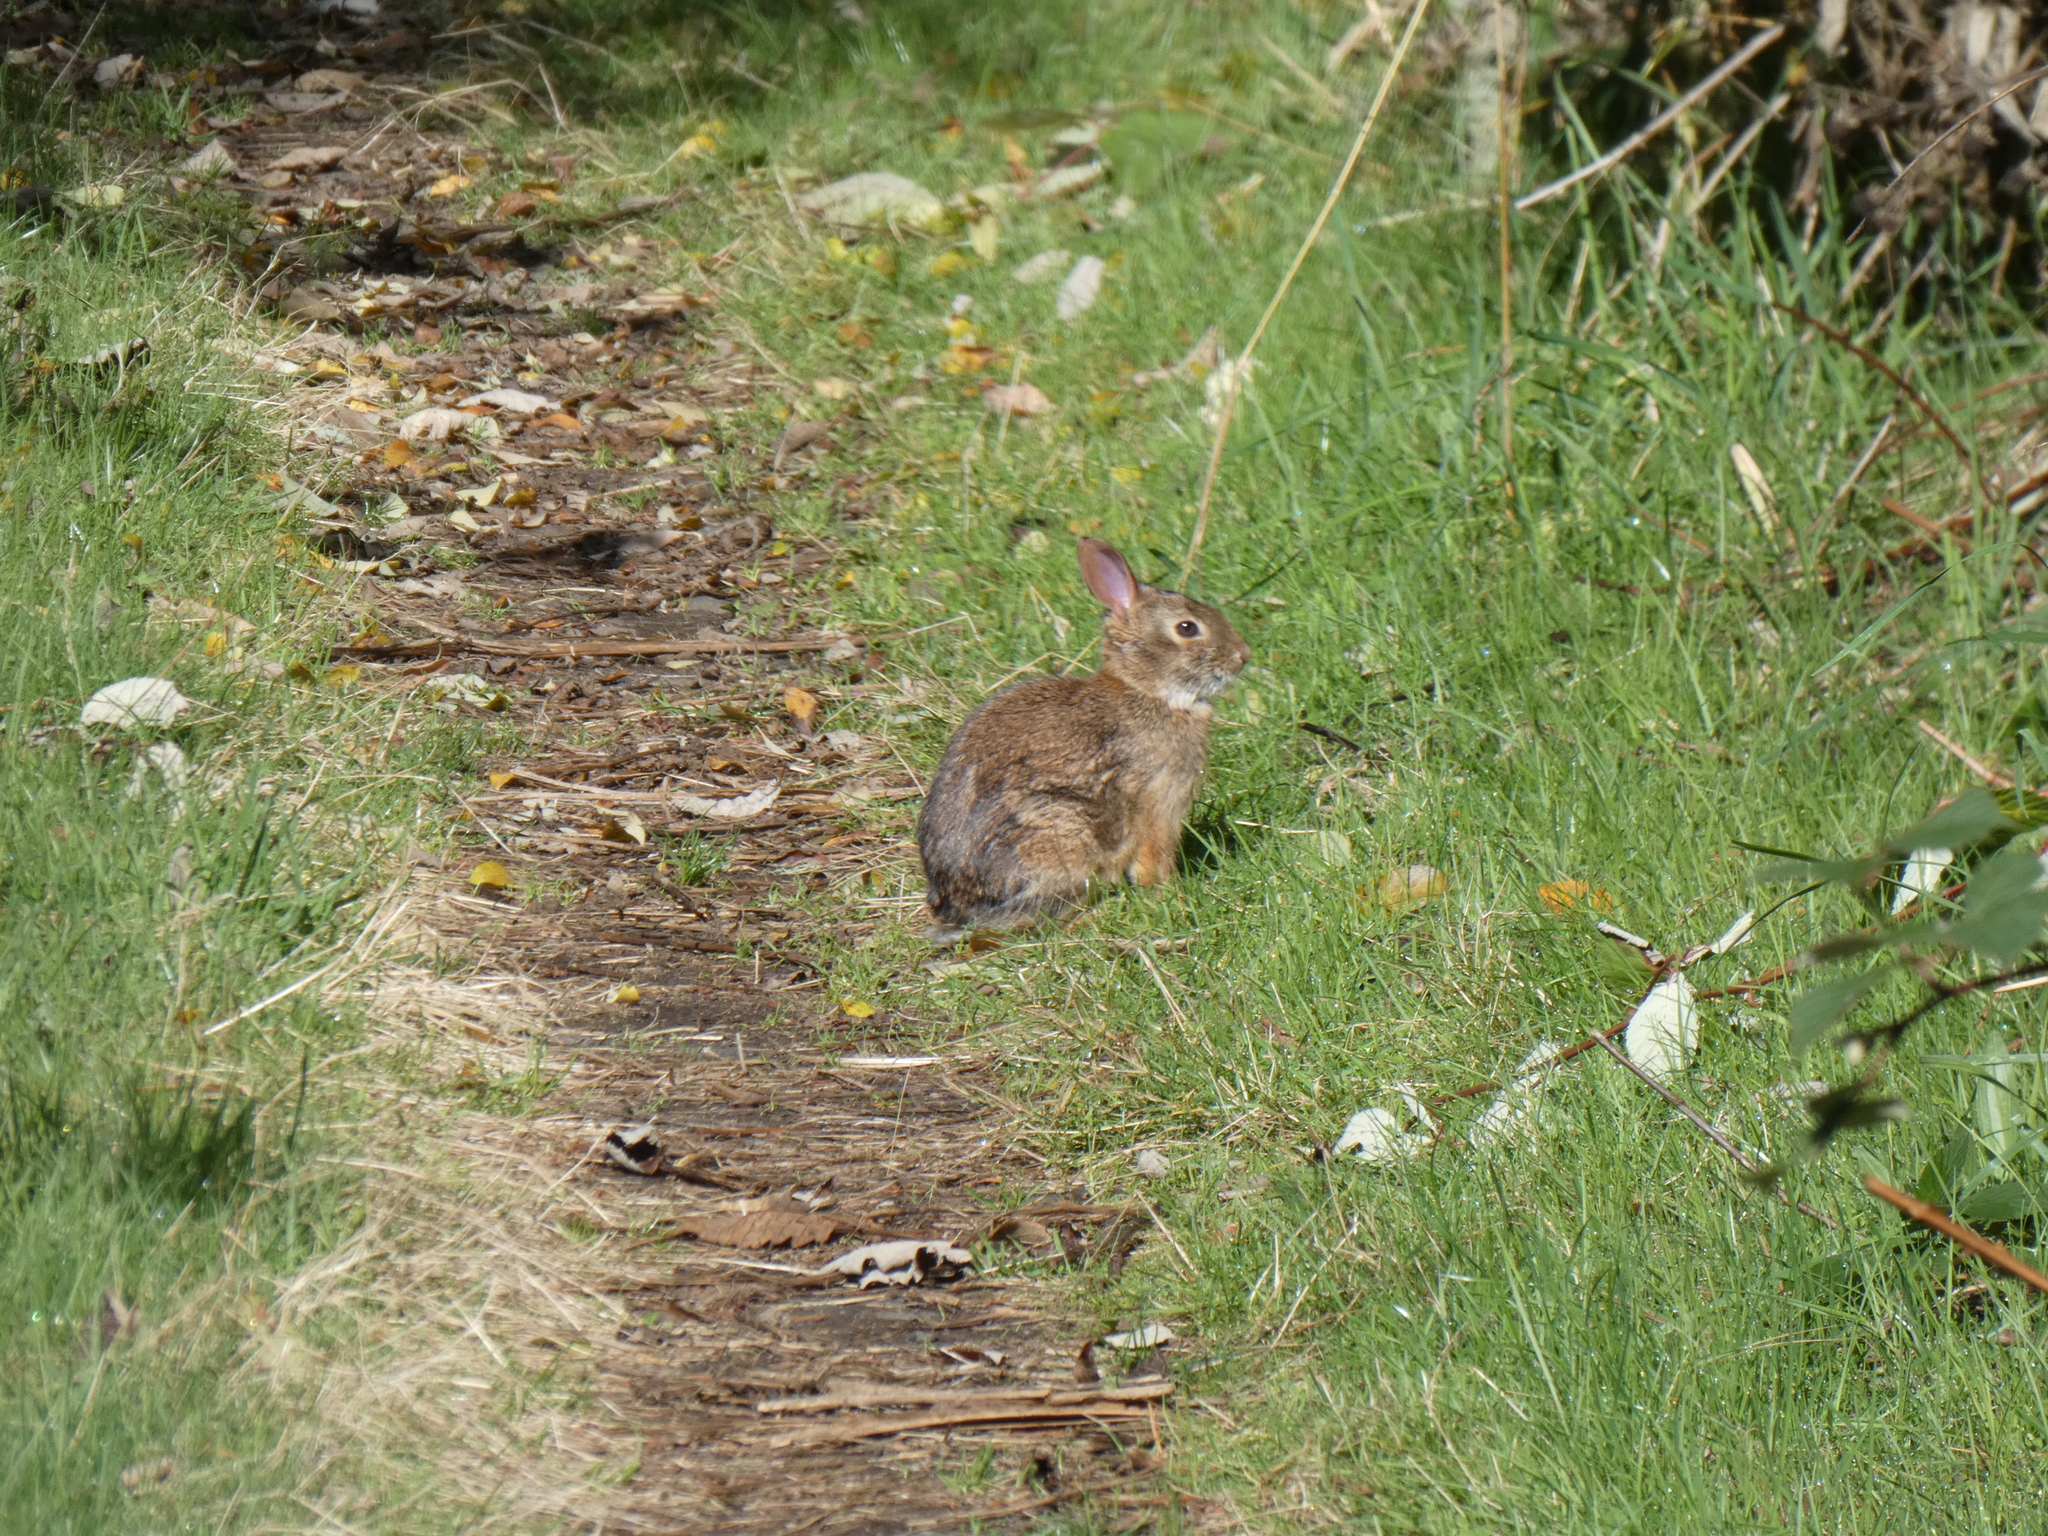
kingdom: Animalia
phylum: Chordata
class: Mammalia
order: Lagomorpha
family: Leporidae
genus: Sylvilagus
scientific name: Sylvilagus floridanus
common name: Eastern cottontail
